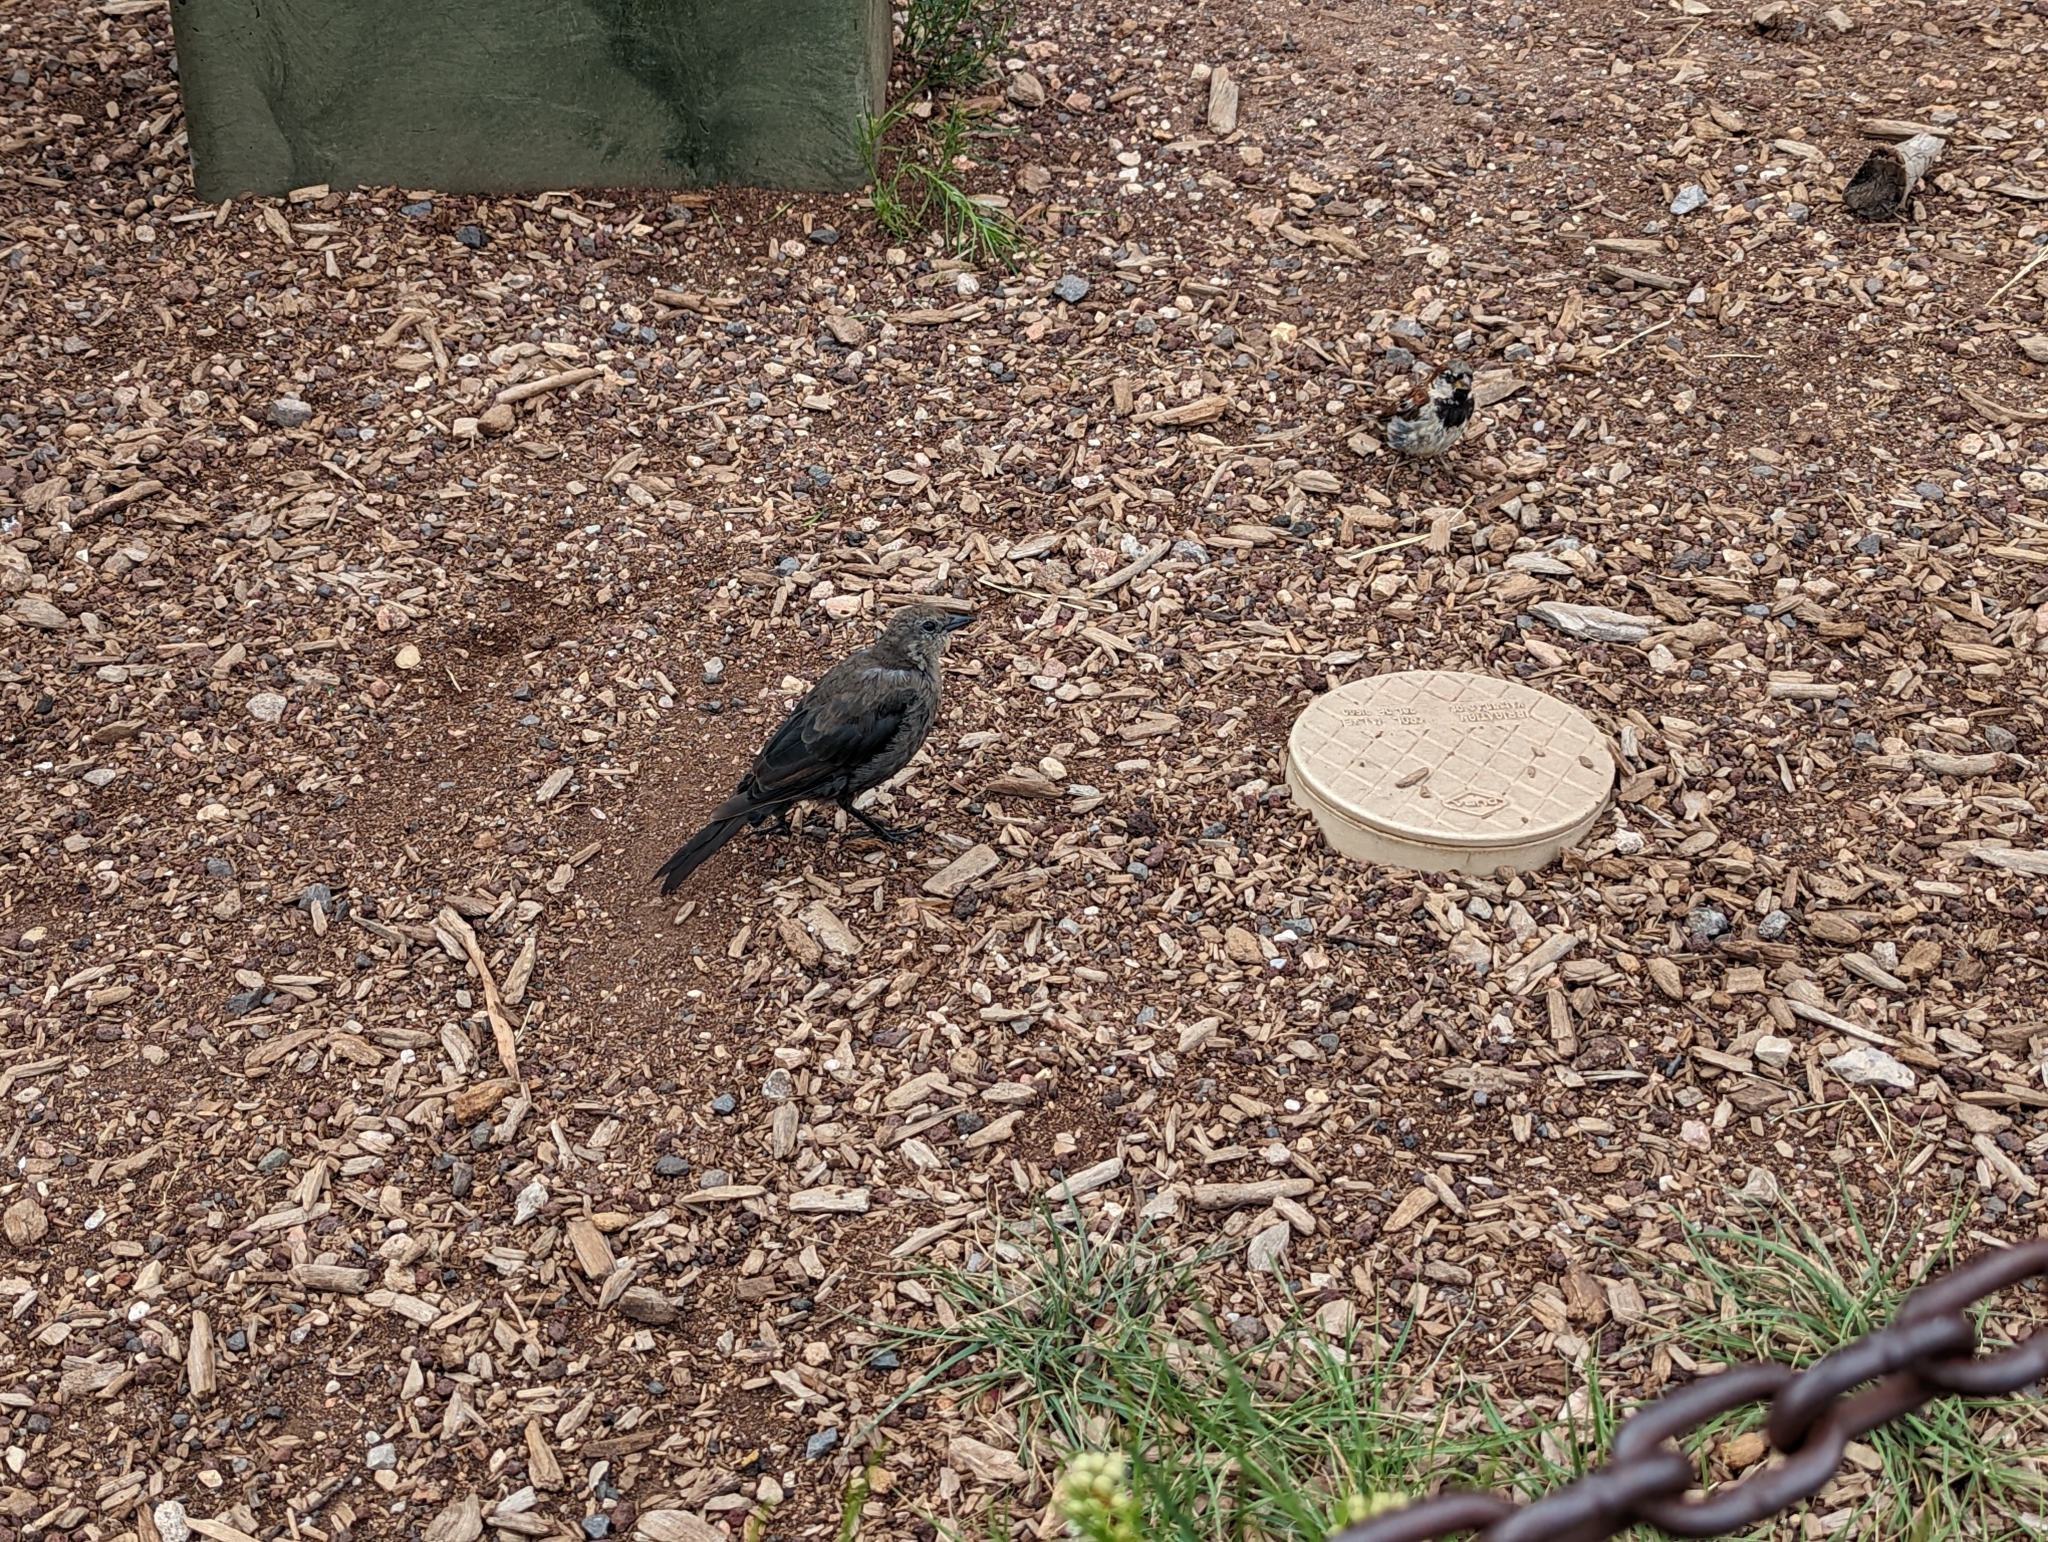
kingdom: Animalia
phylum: Chordata
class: Aves
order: Passeriformes
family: Passeridae
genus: Passer
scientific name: Passer domesticus
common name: House sparrow
